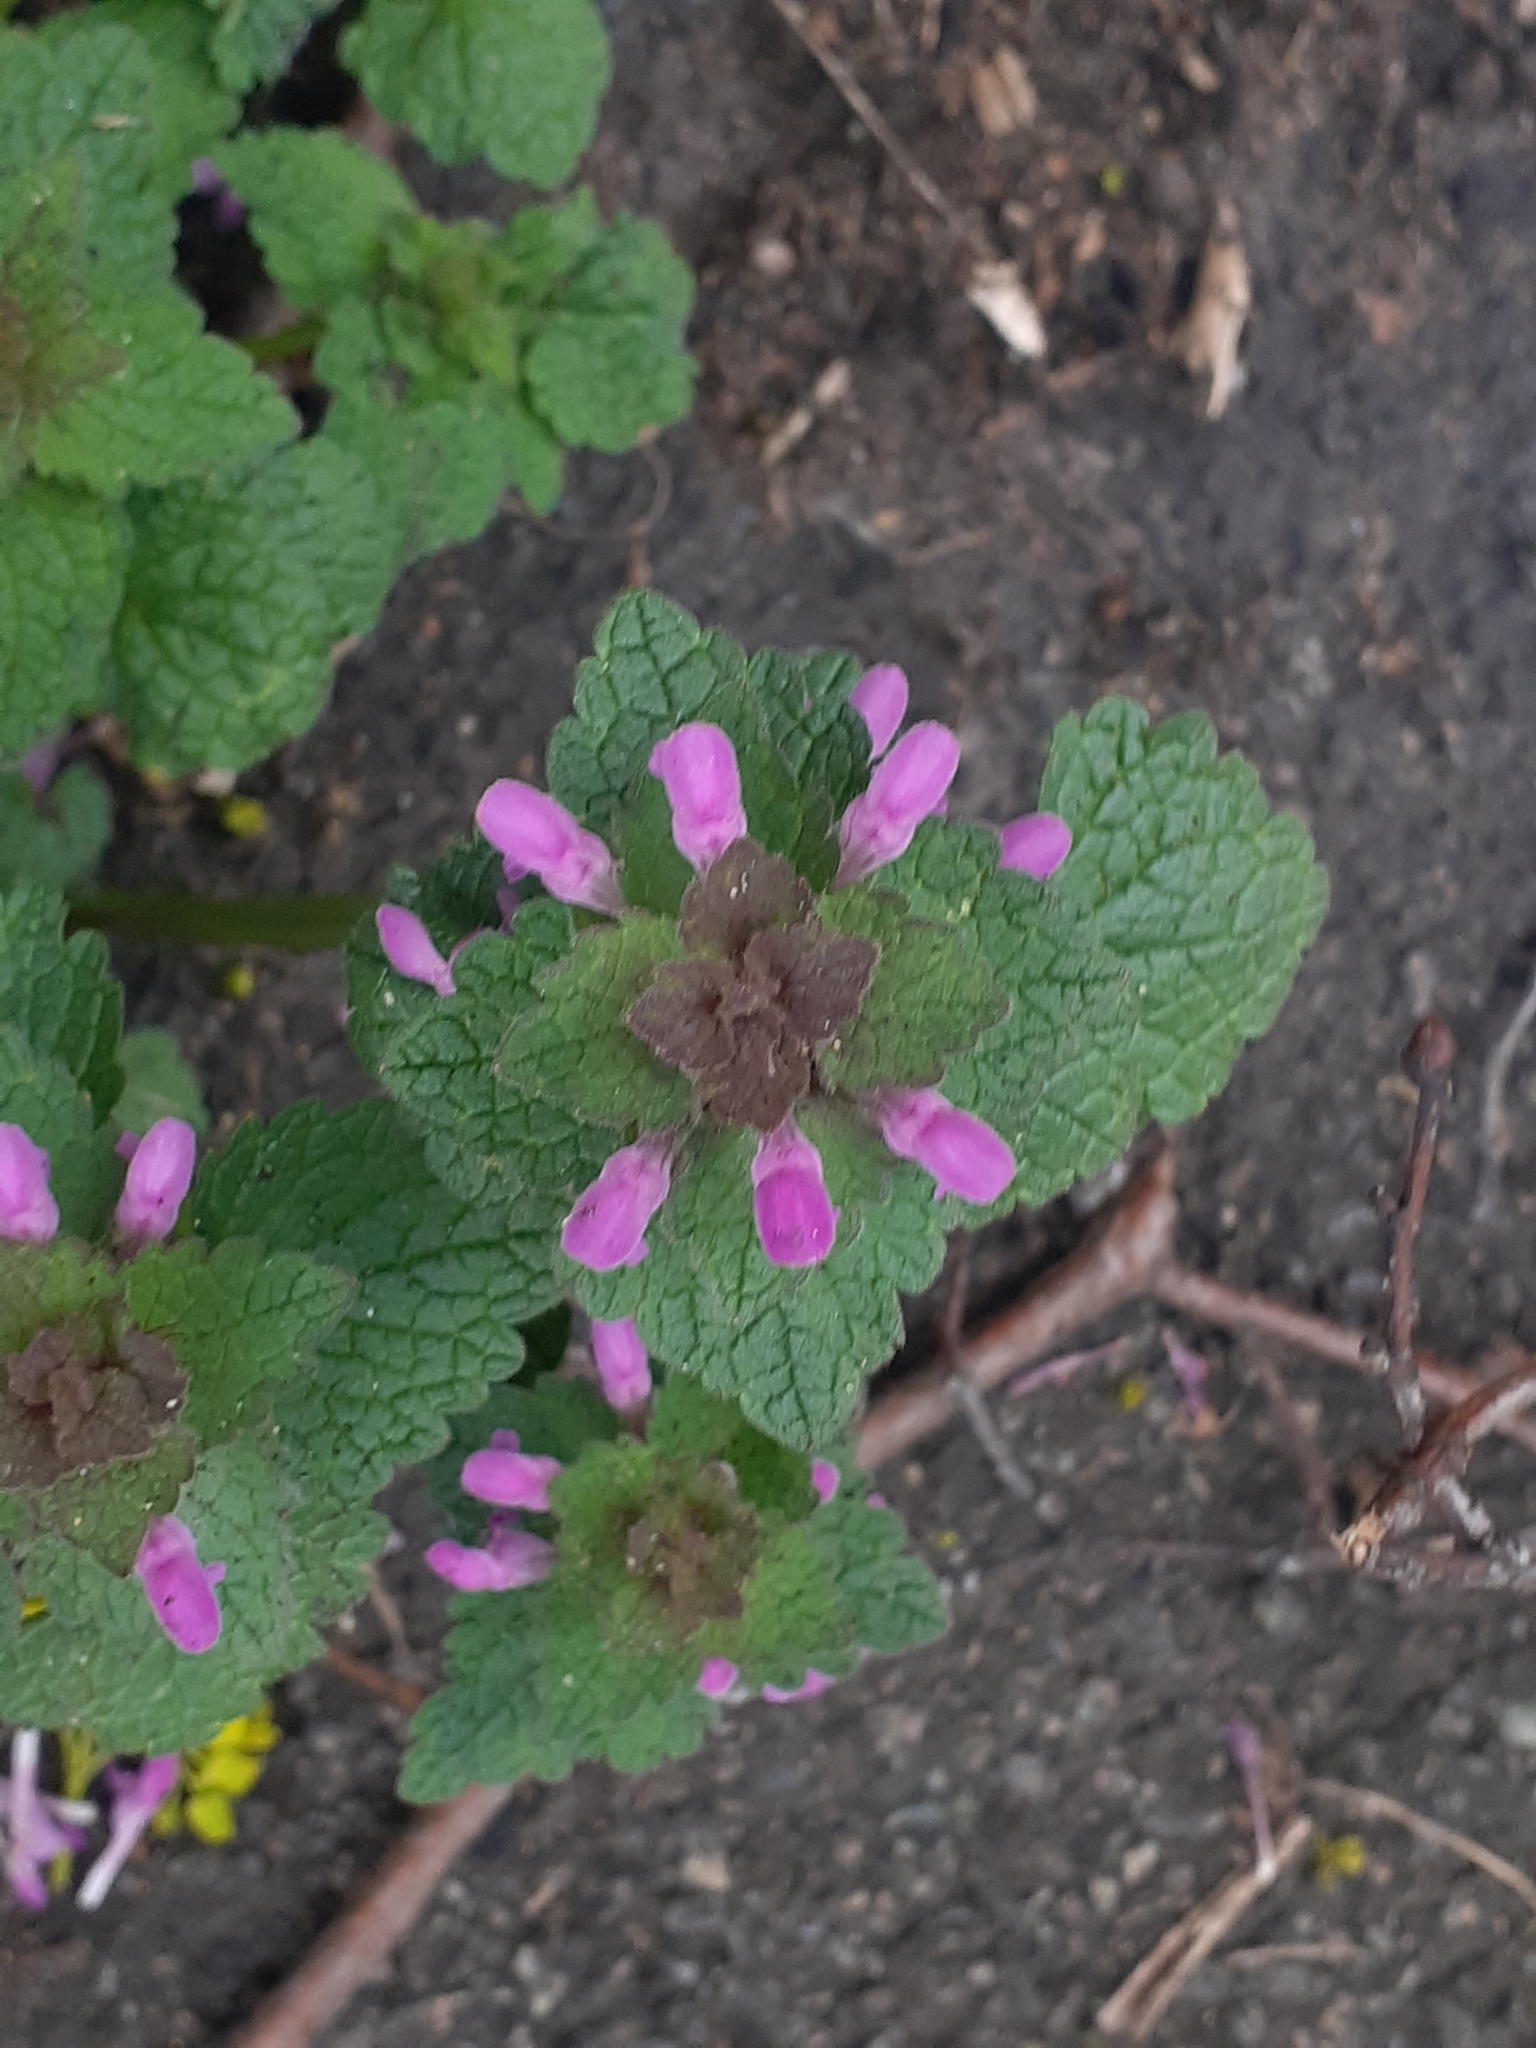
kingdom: Plantae
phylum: Tracheophyta
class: Magnoliopsida
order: Lamiales
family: Lamiaceae
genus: Lamium
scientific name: Lamium purpureum
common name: Red dead-nettle
